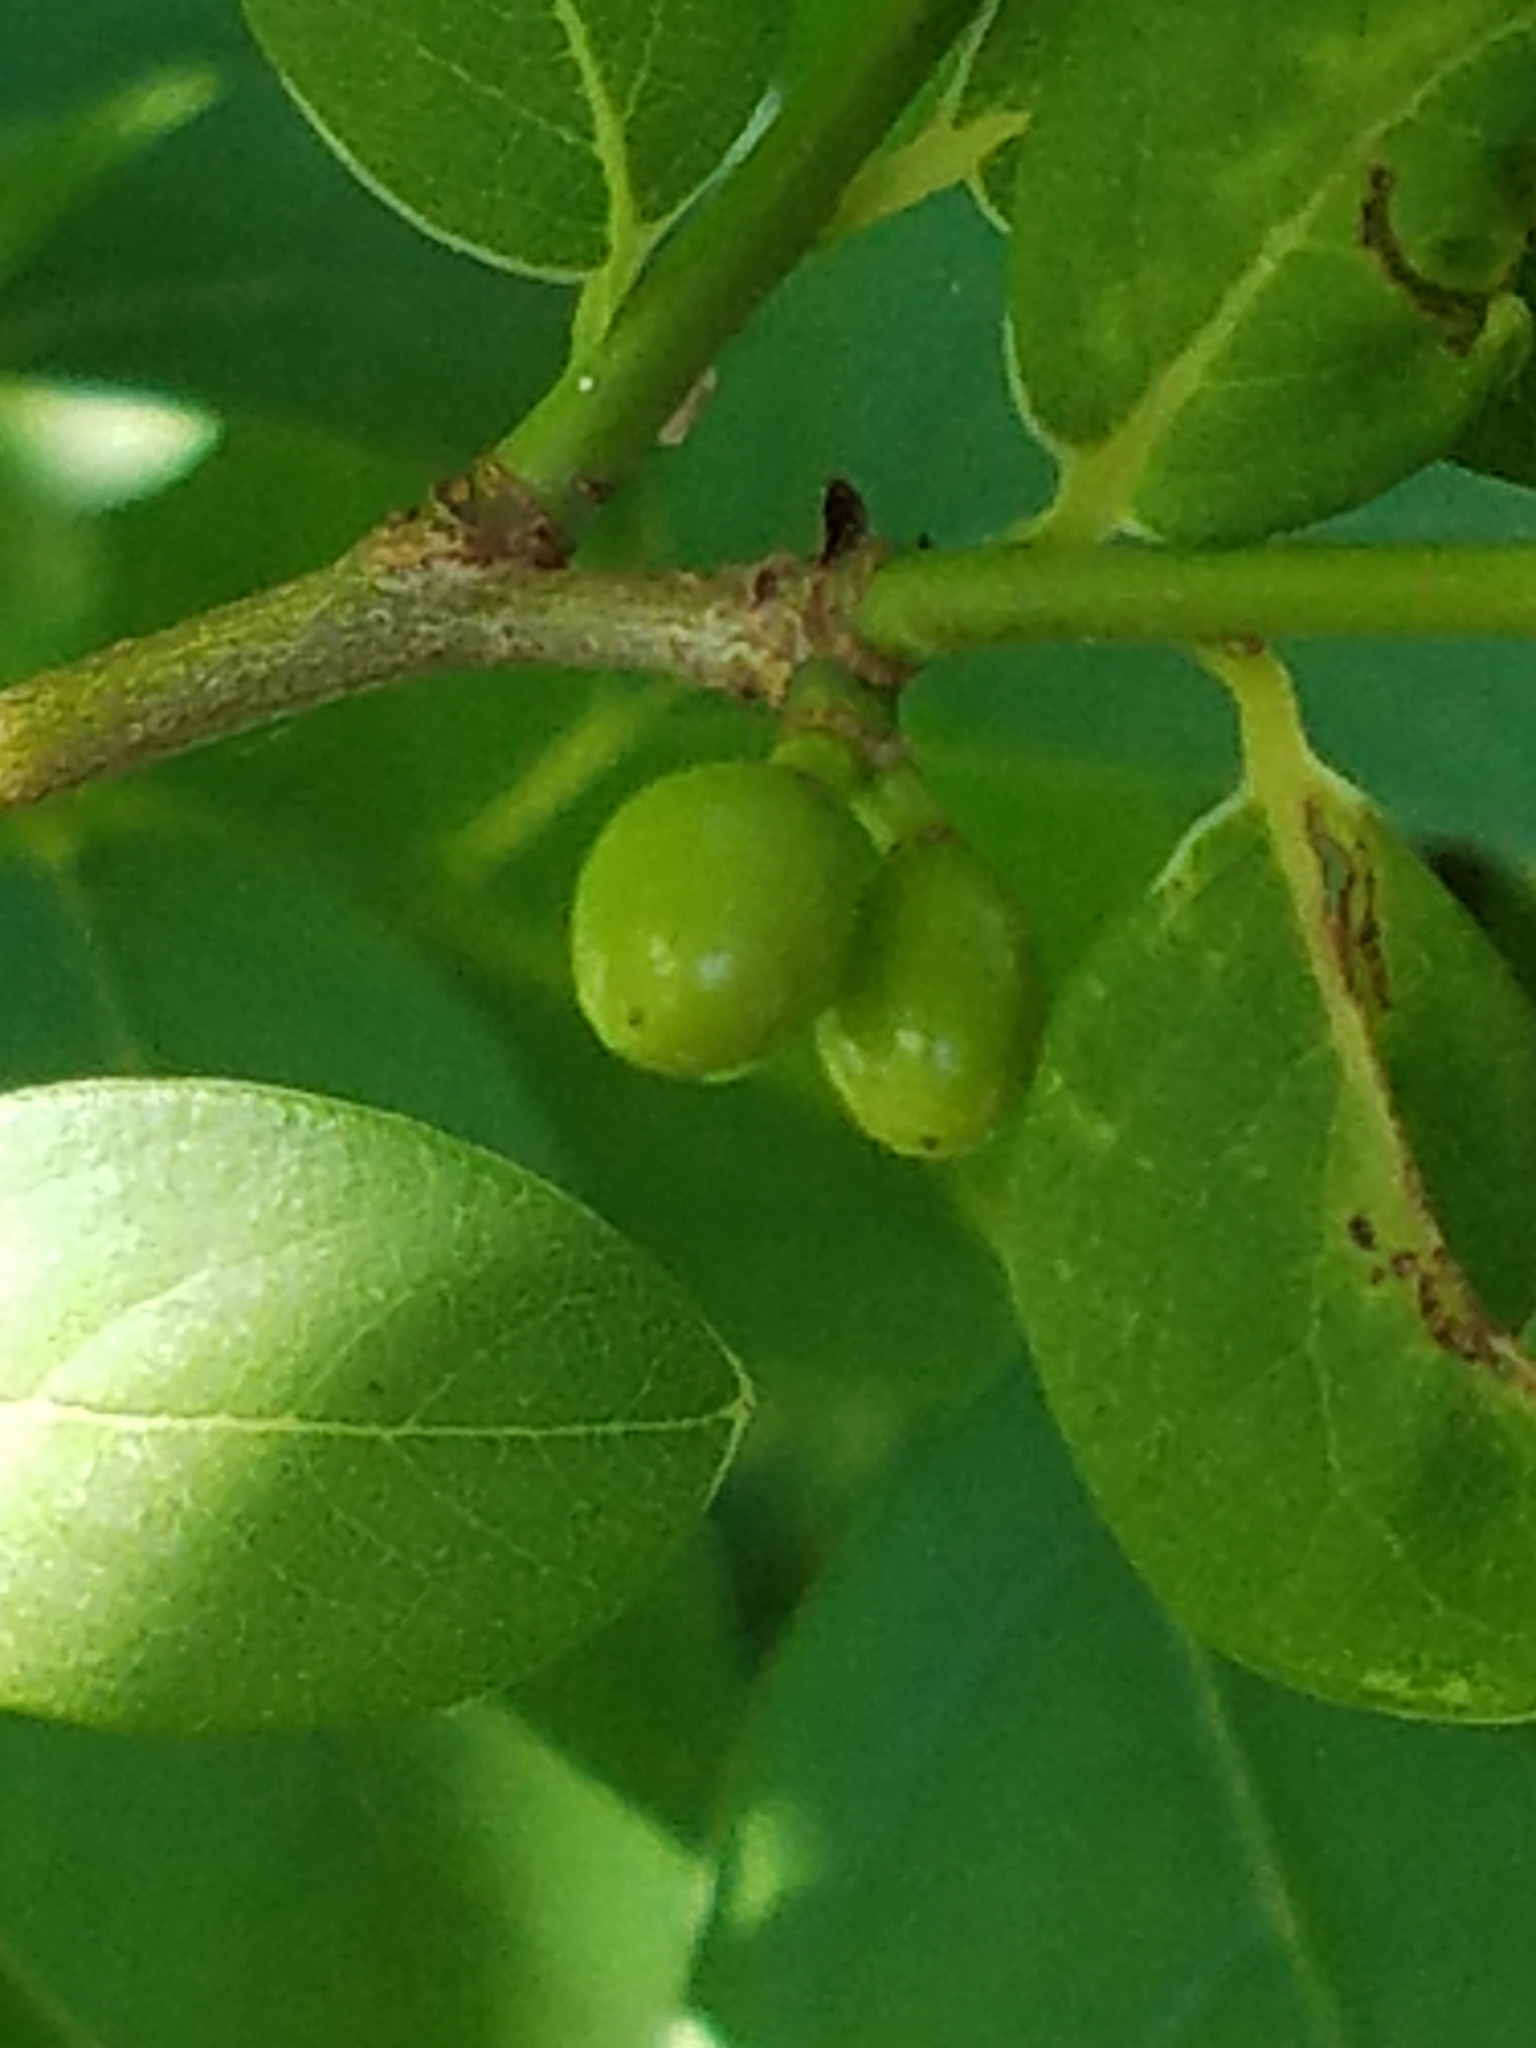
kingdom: Plantae
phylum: Tracheophyta
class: Magnoliopsida
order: Laurales
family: Lauraceae
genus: Lindera
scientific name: Lindera benzoin
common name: Spicebush
